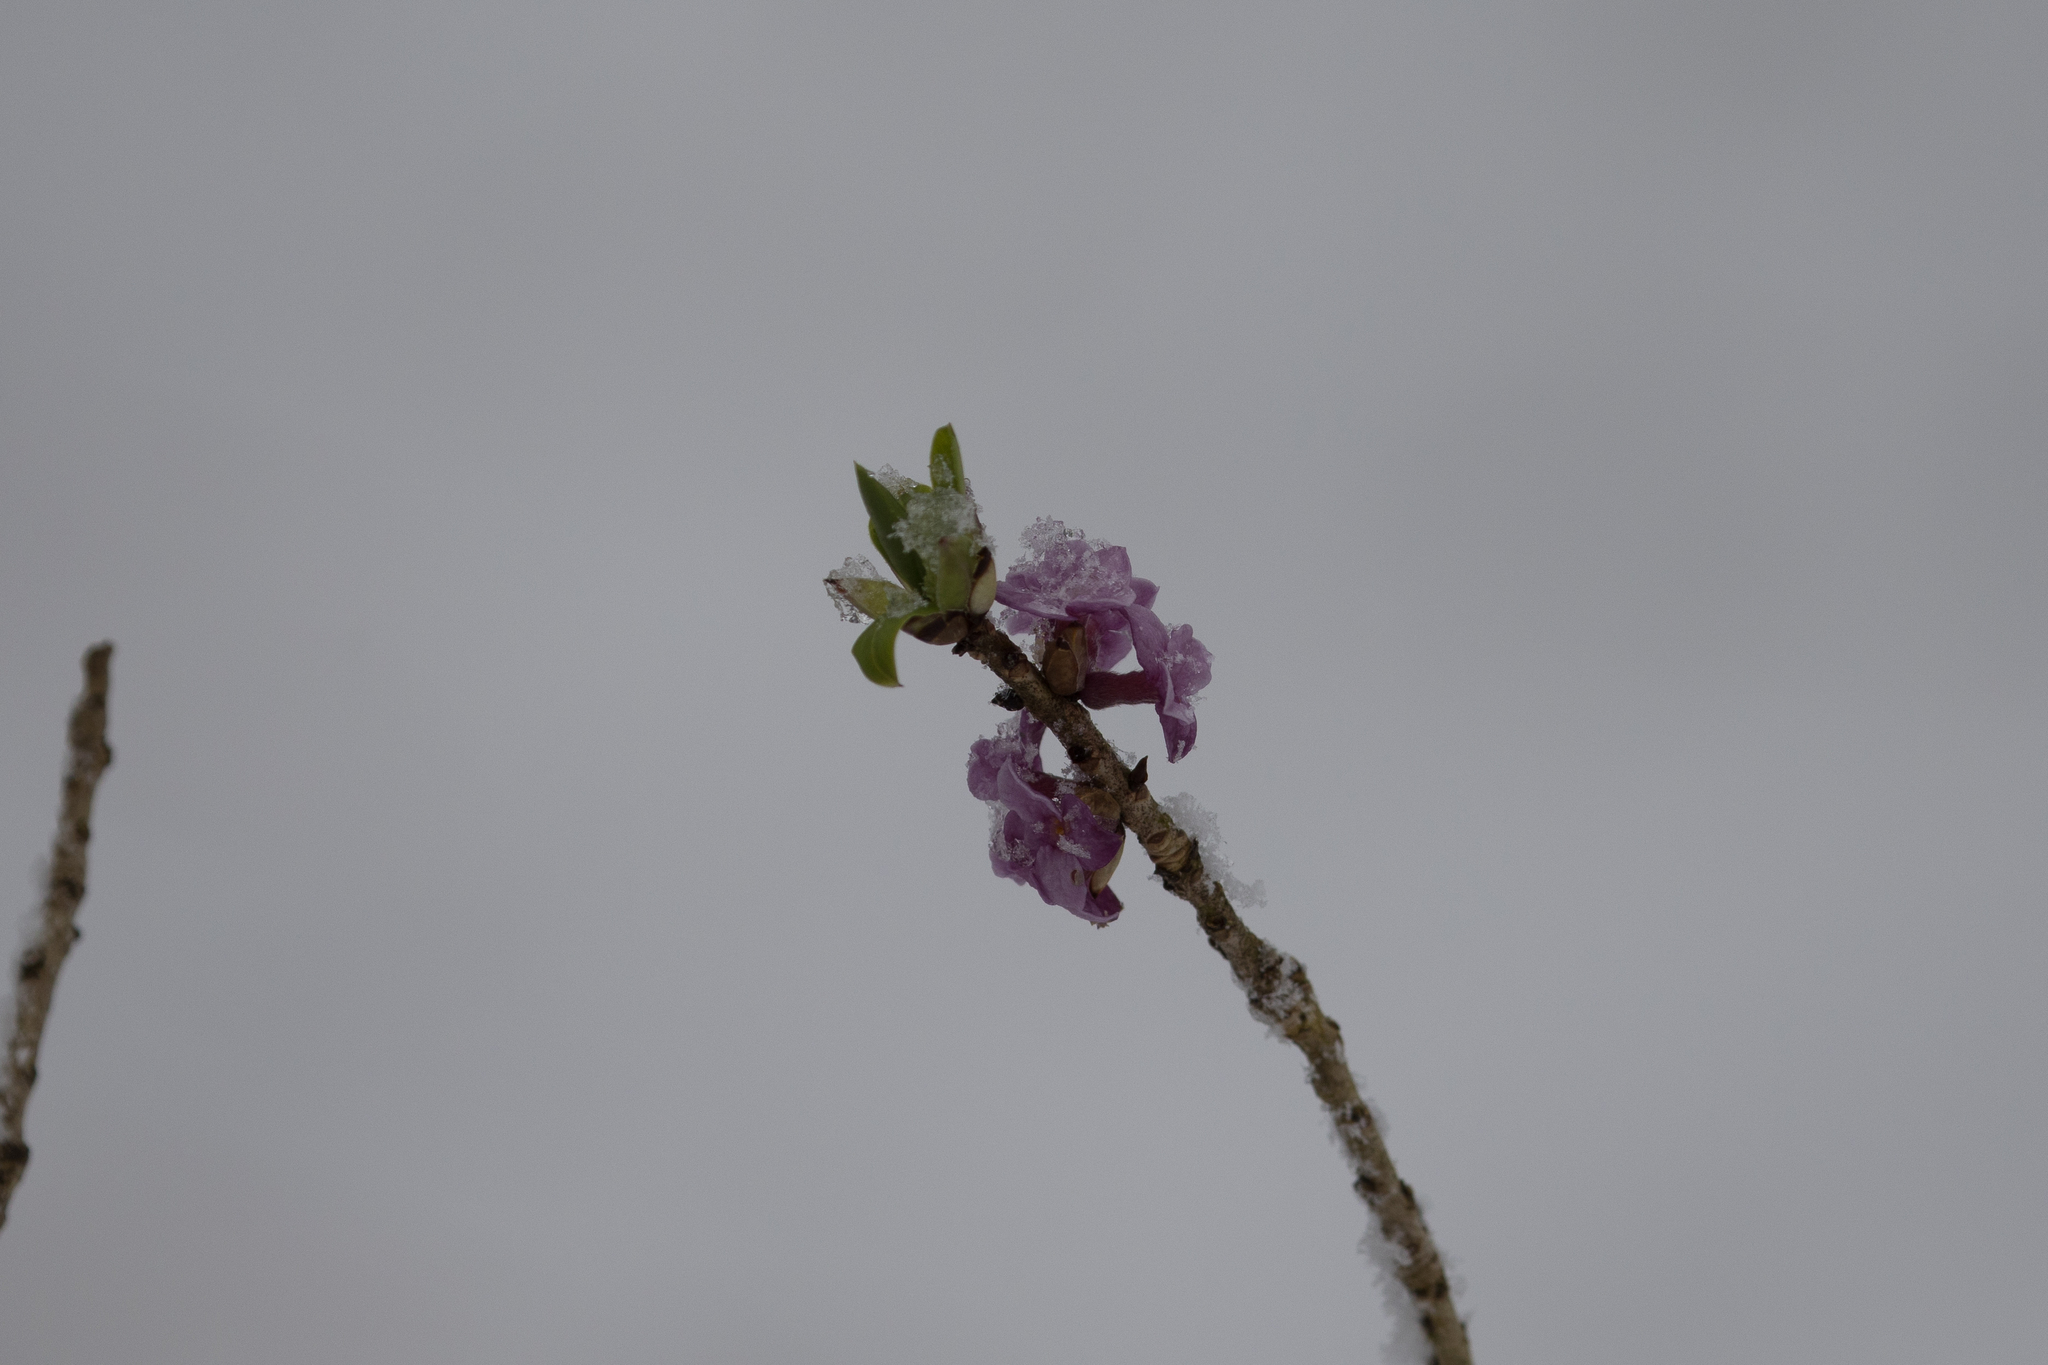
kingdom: Plantae
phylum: Tracheophyta
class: Magnoliopsida
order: Malvales
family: Thymelaeaceae
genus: Daphne
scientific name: Daphne mezereum
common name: Mezereon
